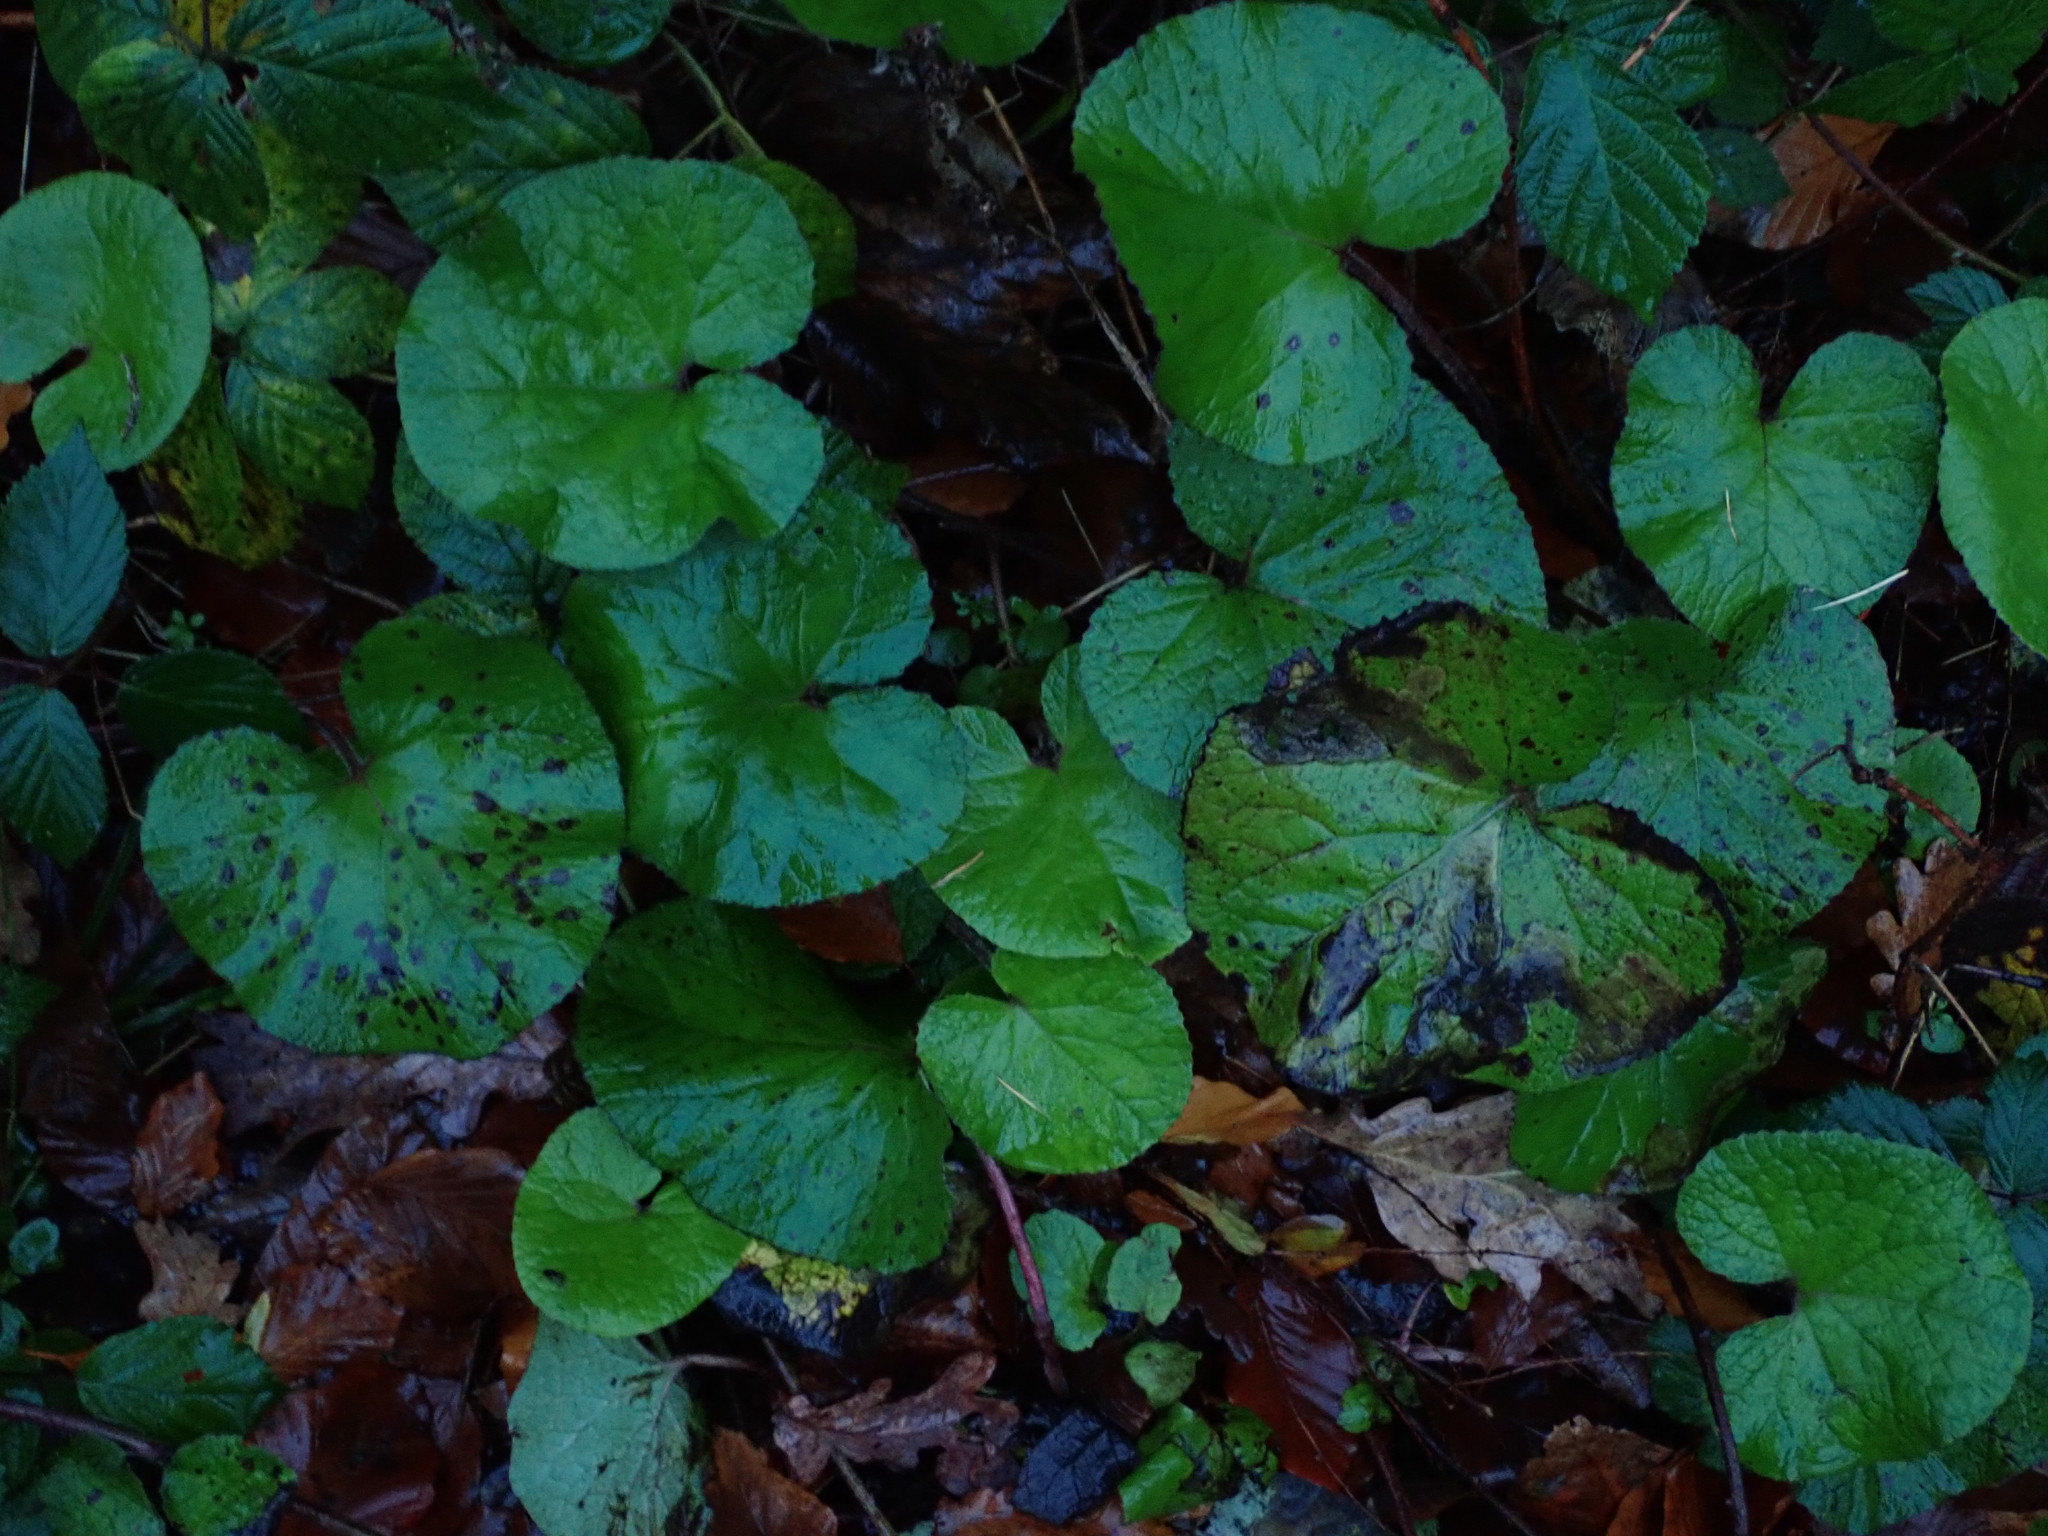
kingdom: Plantae
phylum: Tracheophyta
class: Magnoliopsida
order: Asterales
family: Asteraceae
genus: Petasites
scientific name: Petasites pyrenaicus
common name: Winter heliotrope
